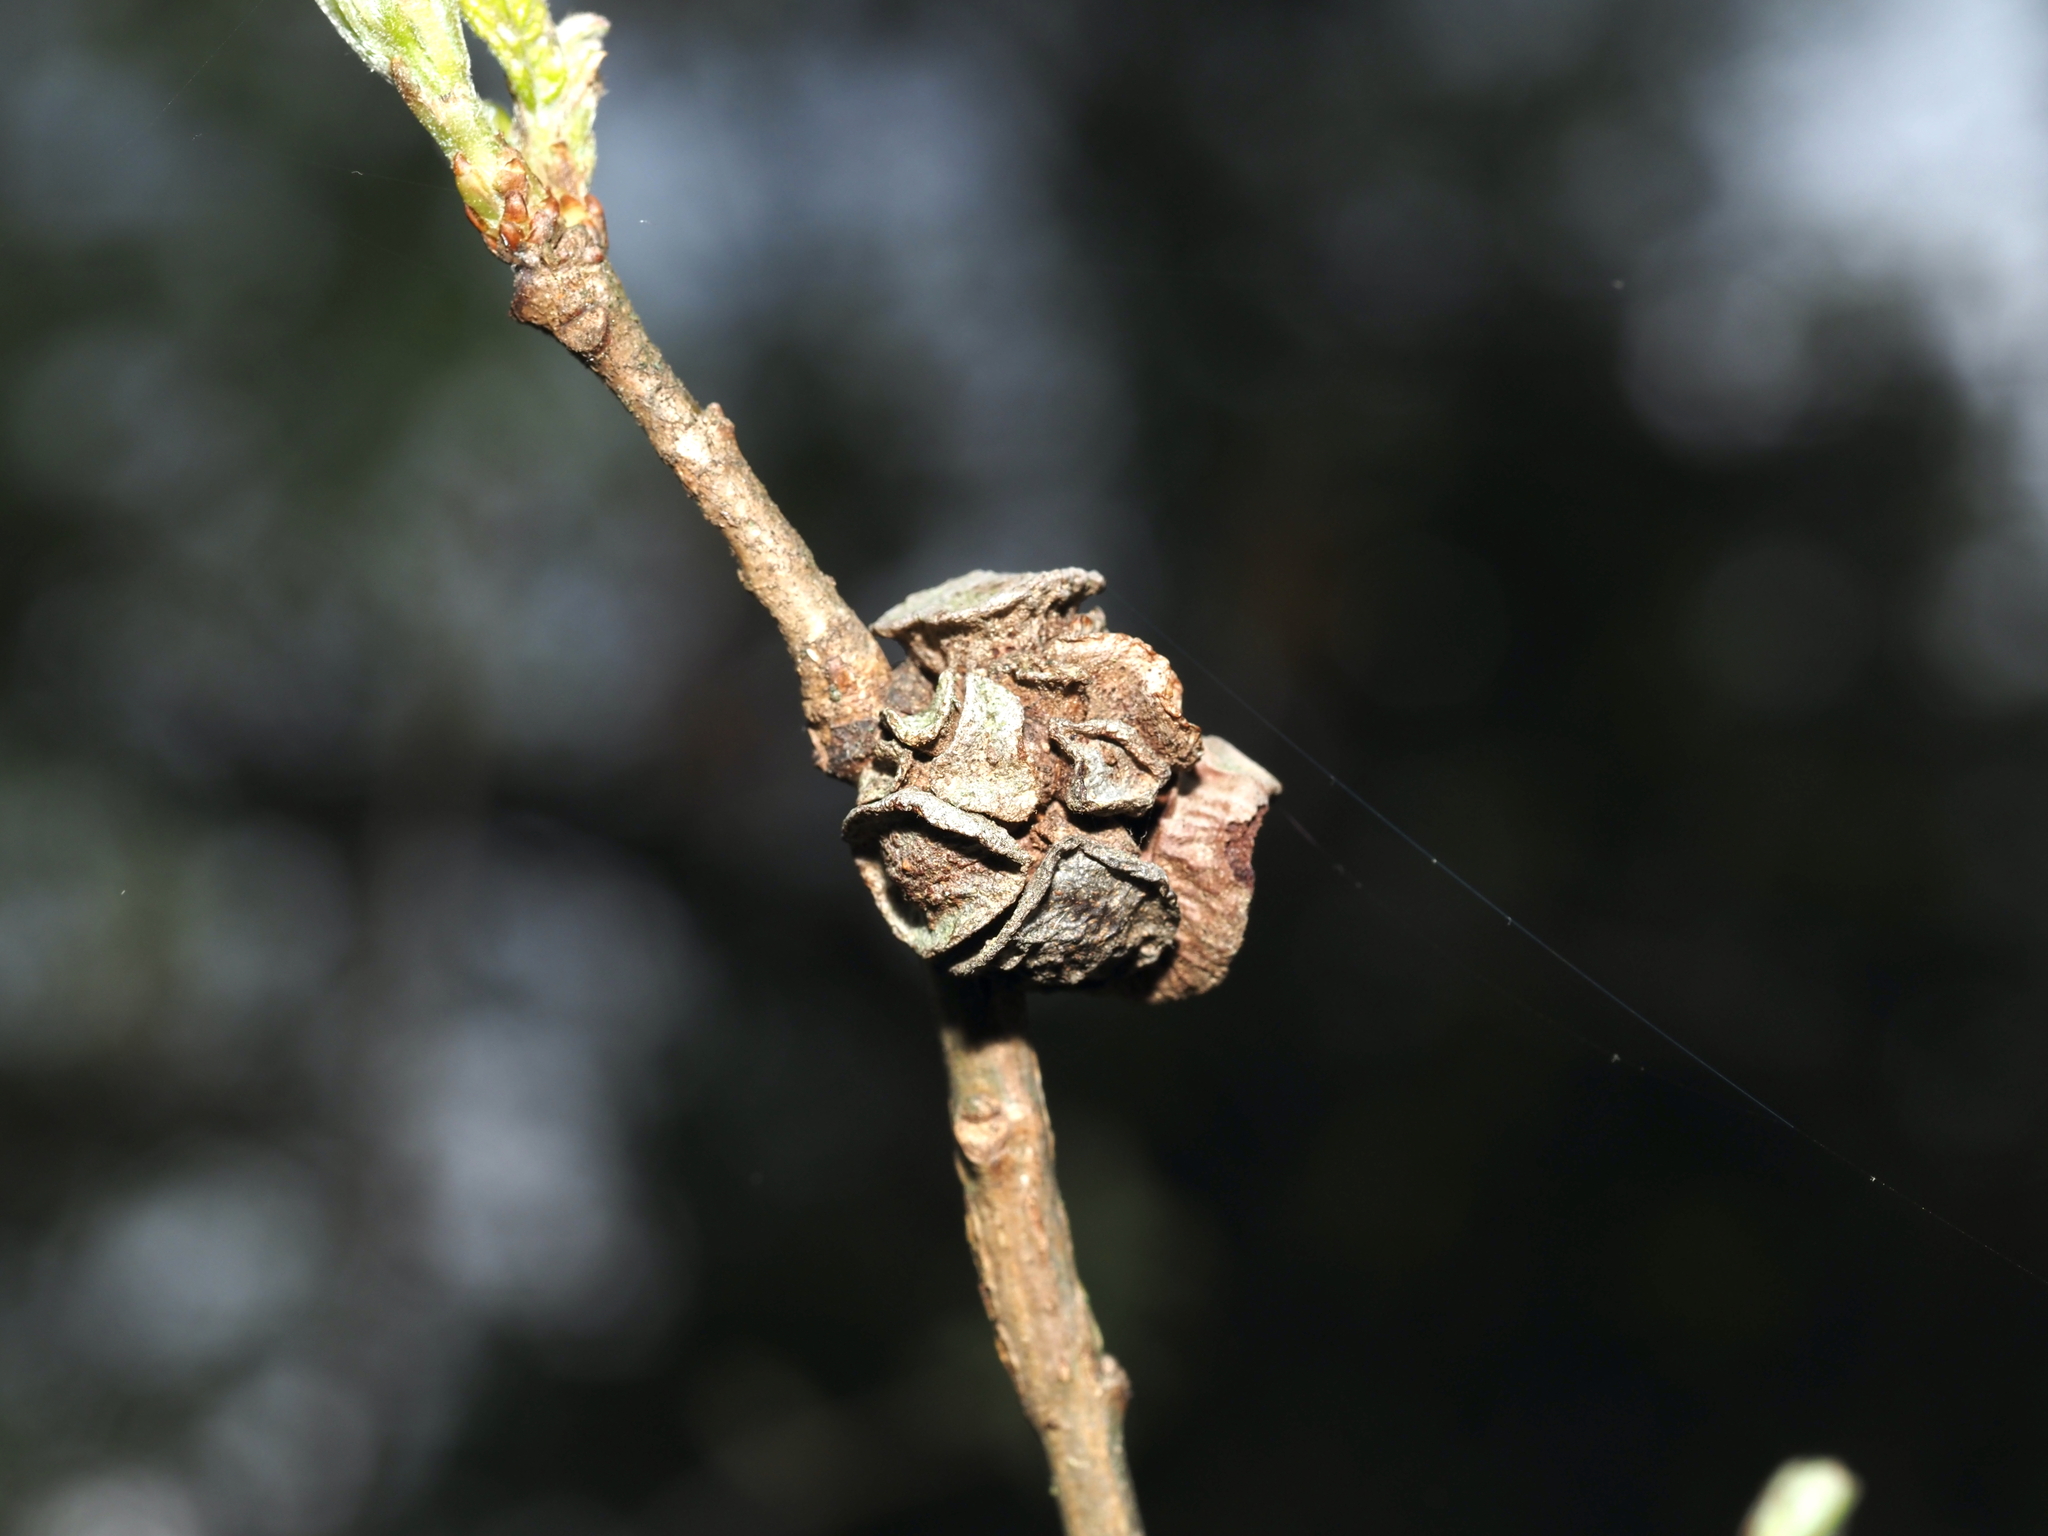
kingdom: Animalia
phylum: Arthropoda
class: Insecta
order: Hymenoptera
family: Cynipidae
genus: Andricus
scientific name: Andricus
